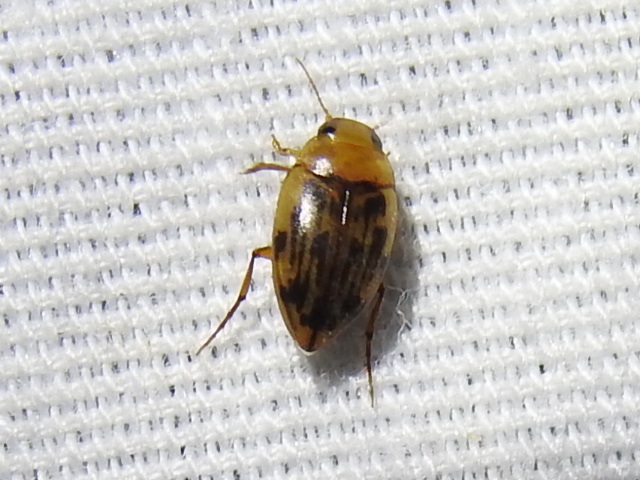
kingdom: Animalia
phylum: Arthropoda
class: Insecta
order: Coleoptera
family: Dytiscidae
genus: Neoporus
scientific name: Neoporus dimidiatus
